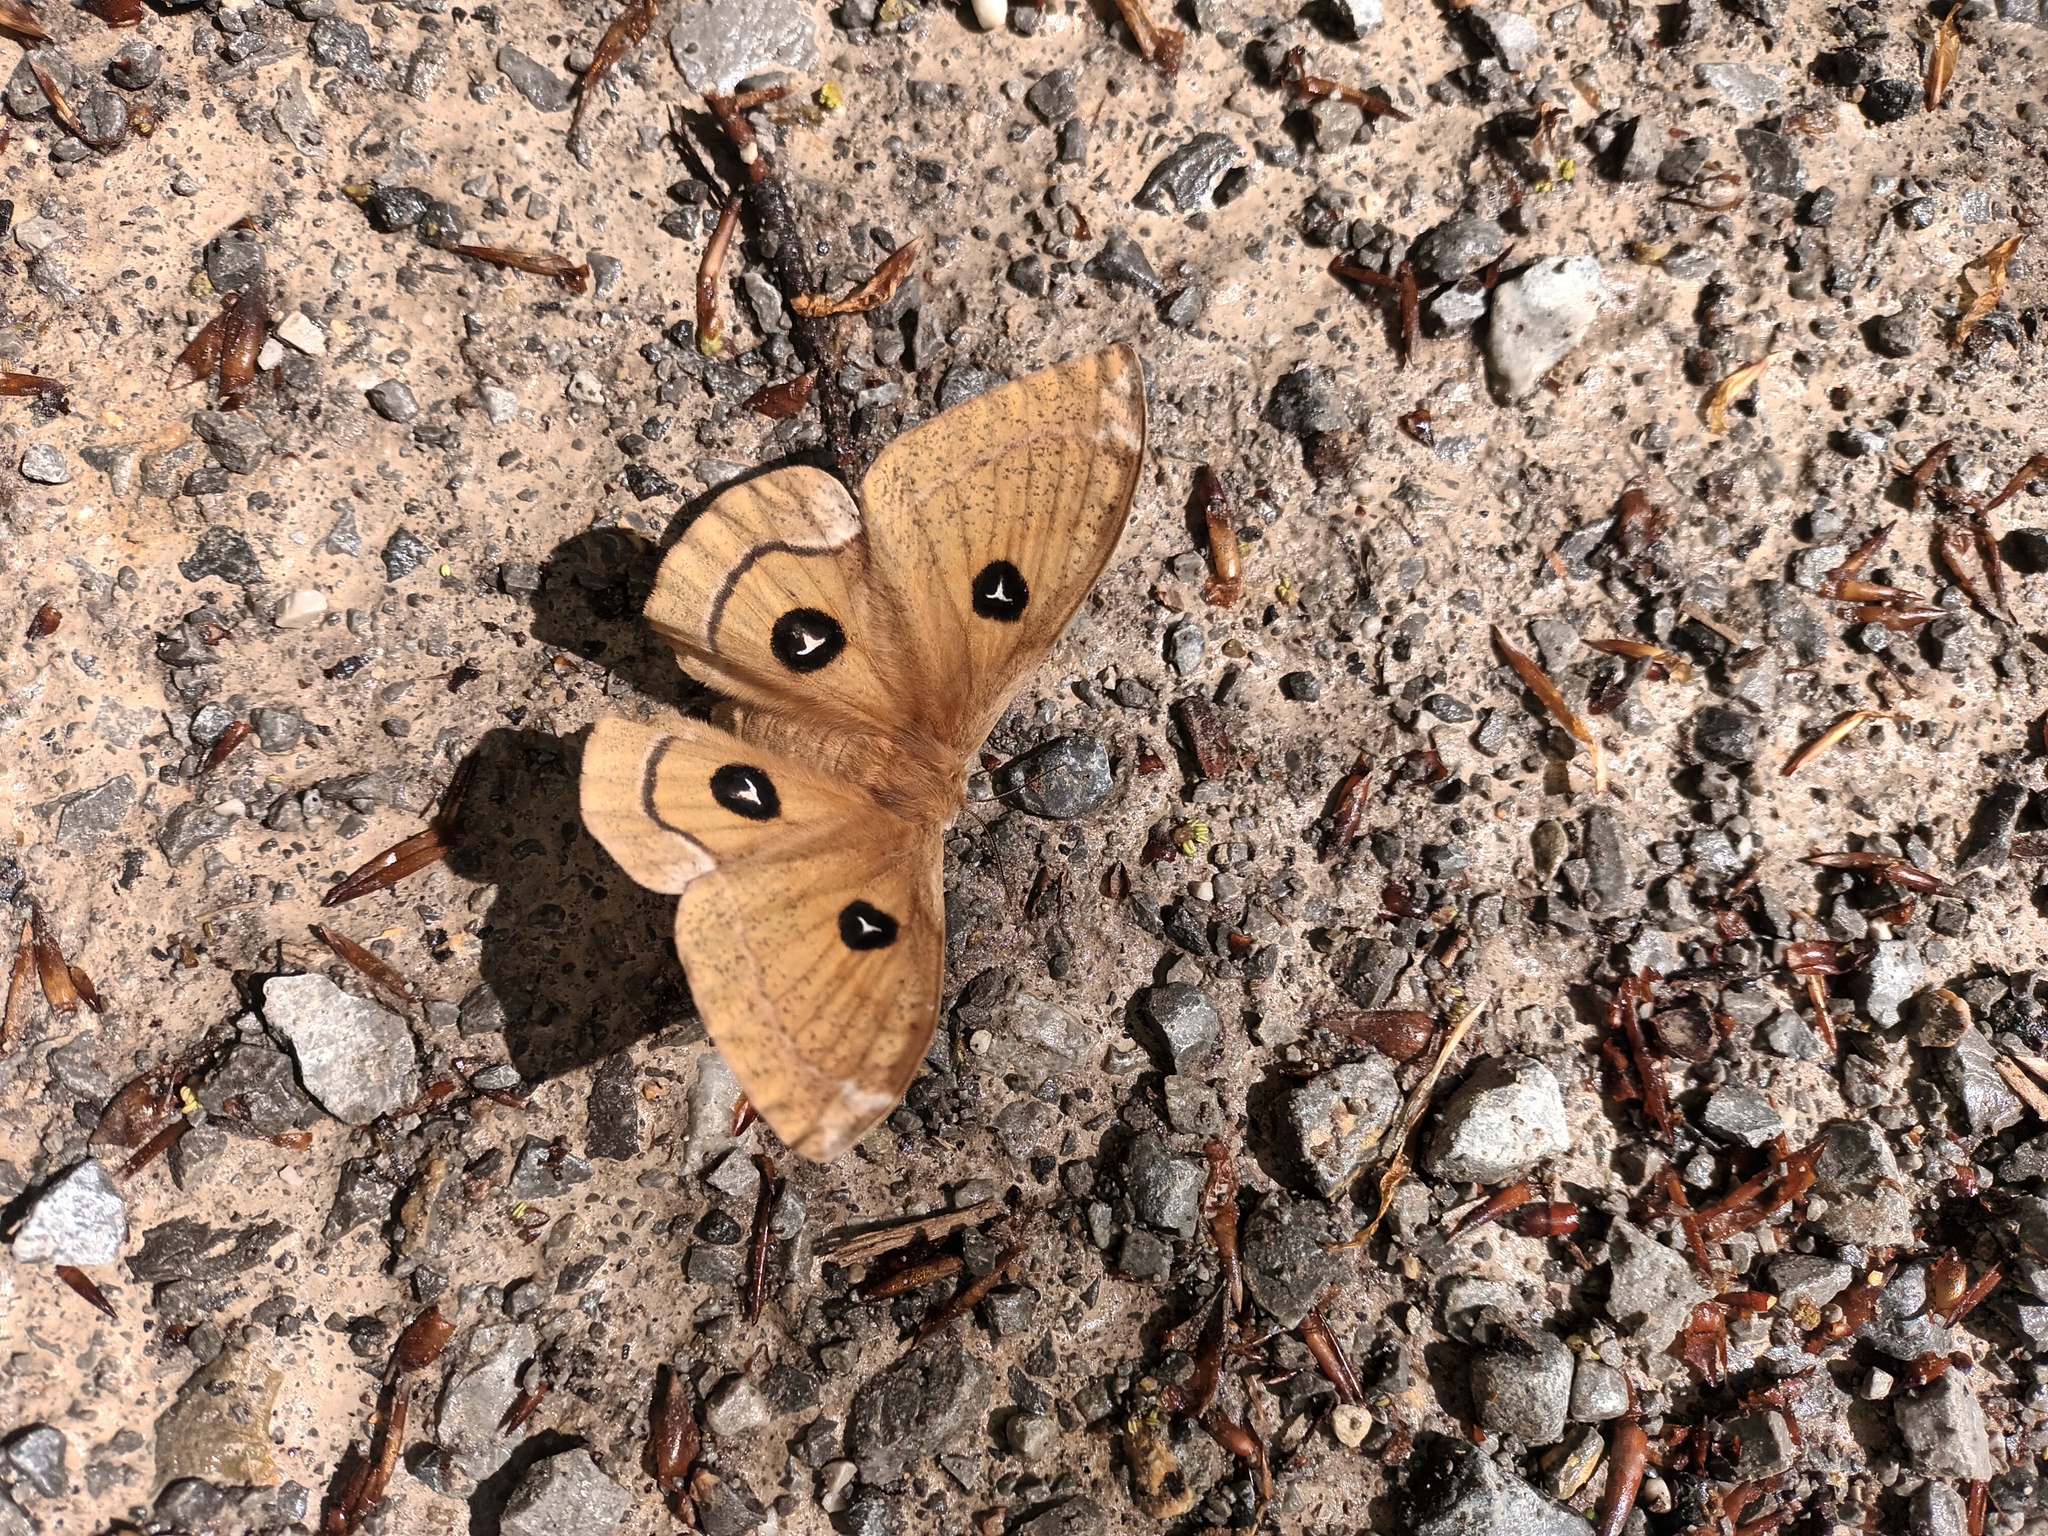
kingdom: Animalia
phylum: Arthropoda
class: Insecta
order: Lepidoptera
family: Saturniidae
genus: Aglia
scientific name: Aglia tau
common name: Tau emperor
